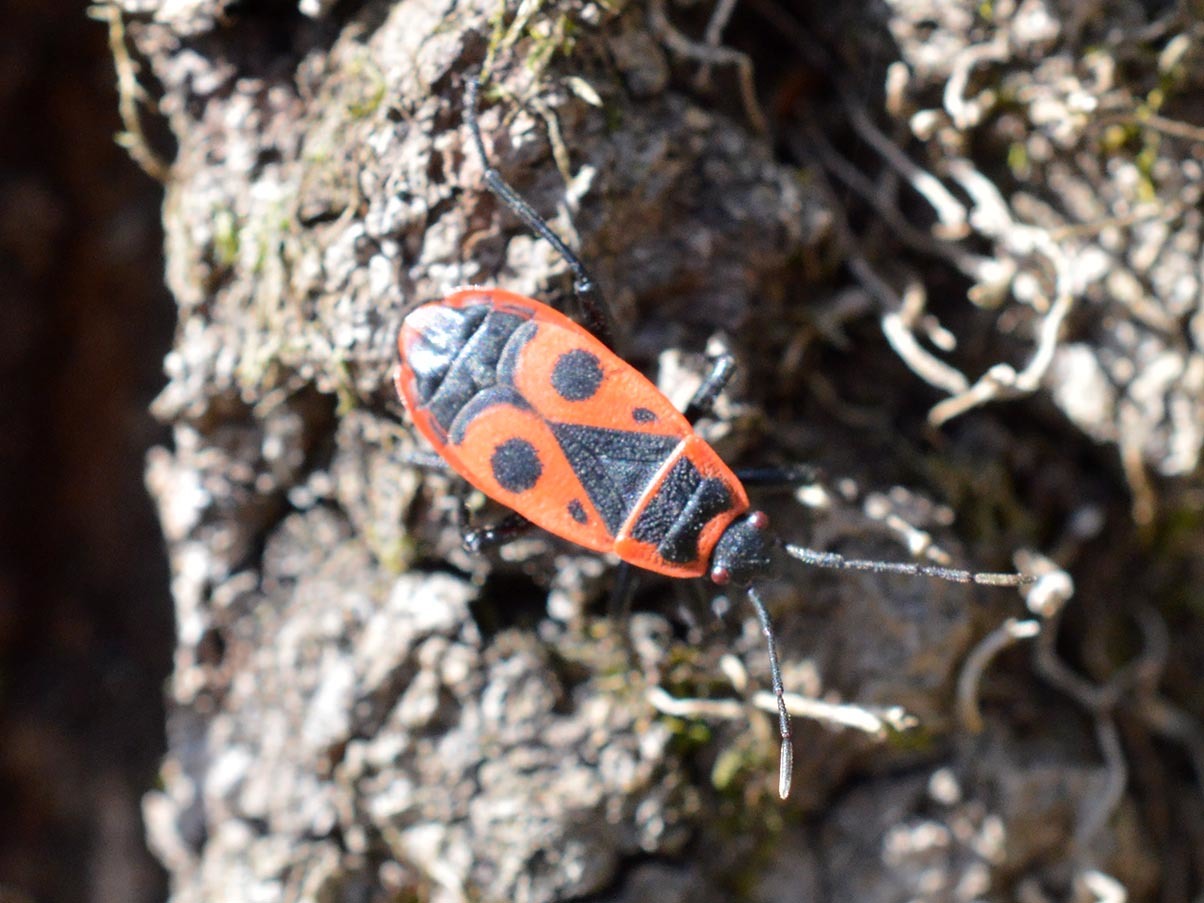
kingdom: Animalia
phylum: Arthropoda
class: Insecta
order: Hemiptera
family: Pyrrhocoridae
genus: Pyrrhocoris
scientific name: Pyrrhocoris apterus
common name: Firebug
